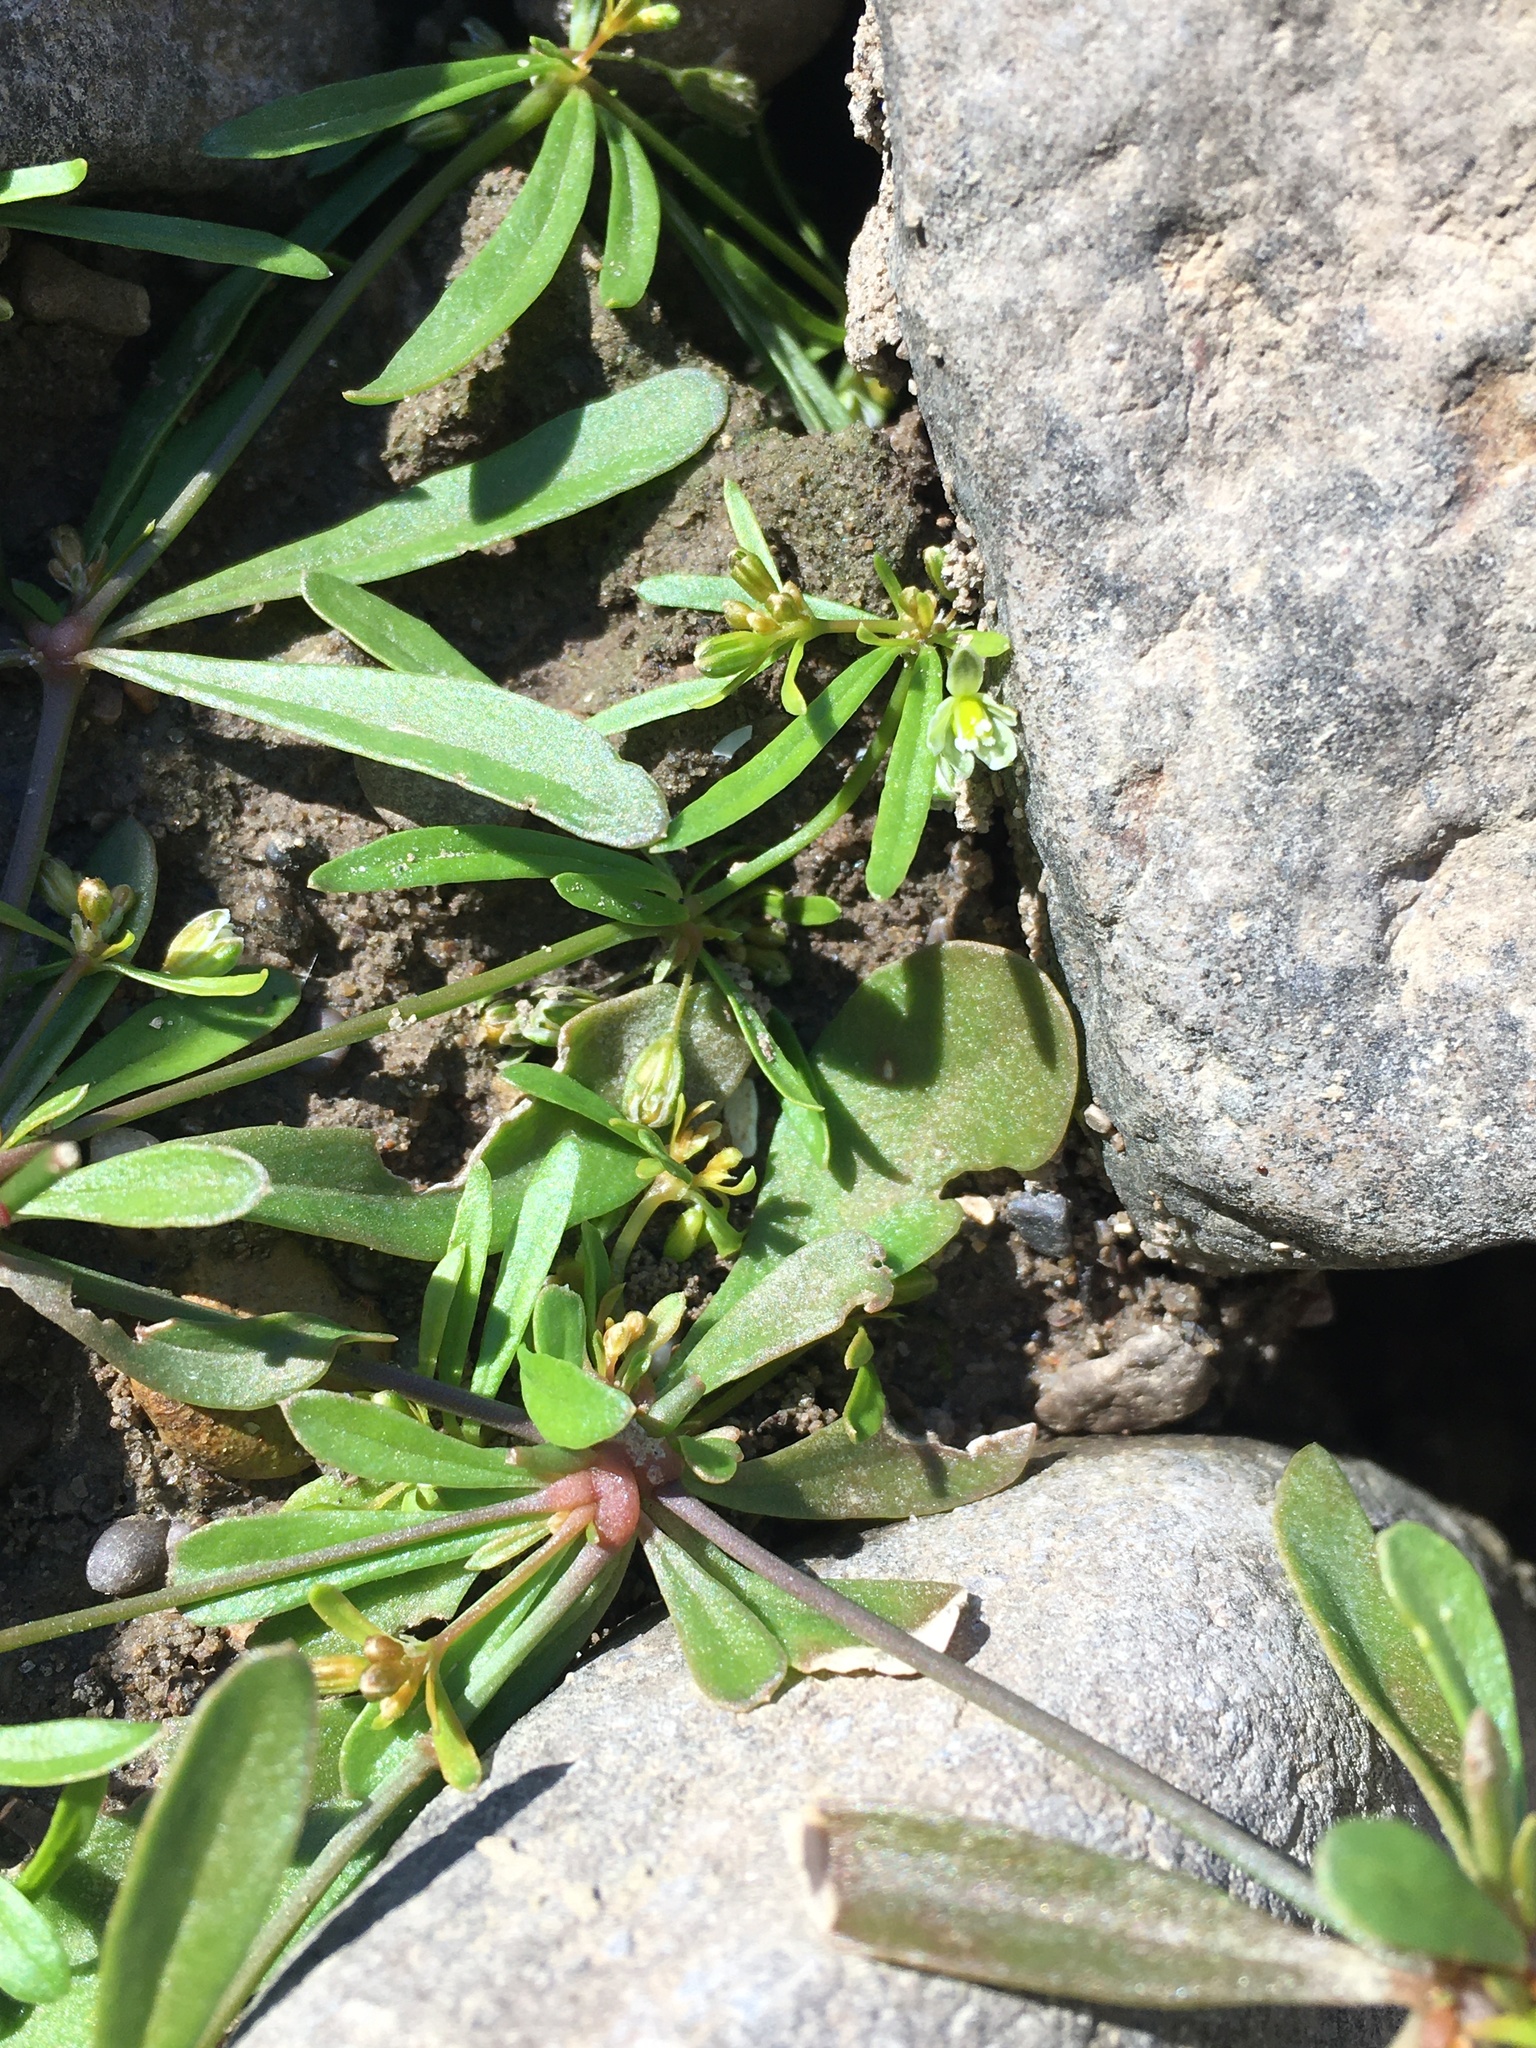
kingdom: Plantae
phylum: Tracheophyta
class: Magnoliopsida
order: Caryophyllales
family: Molluginaceae
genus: Mollugo
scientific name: Mollugo verticillata
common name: Green carpetweed
